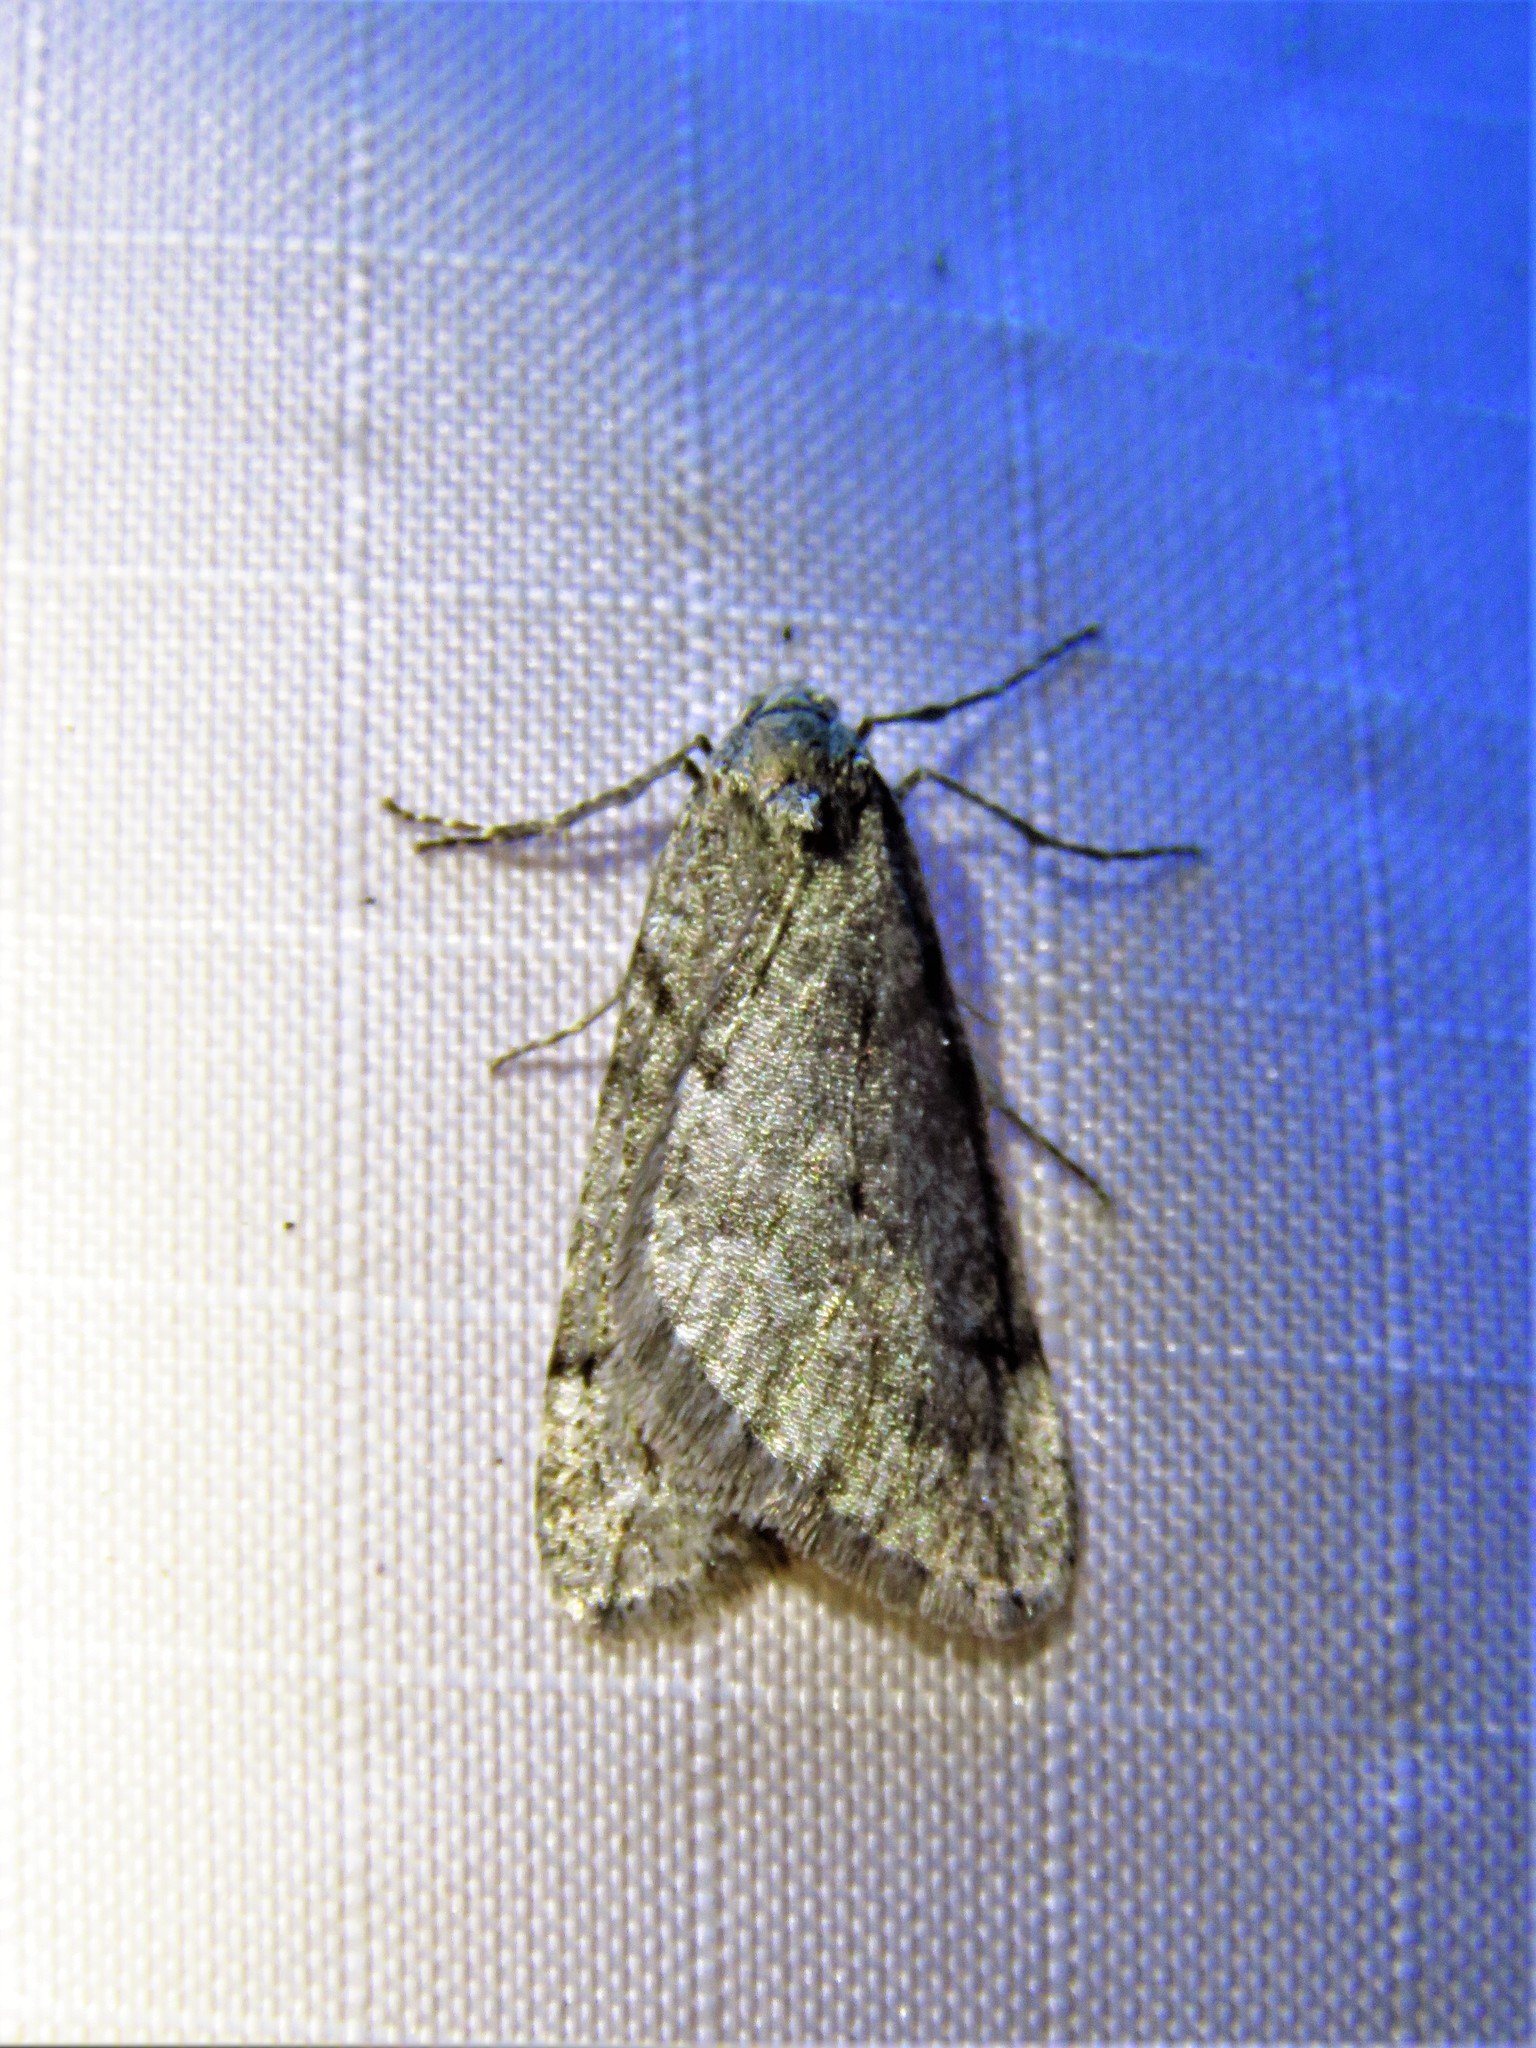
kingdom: Animalia
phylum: Arthropoda
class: Insecta
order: Lepidoptera
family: Geometridae
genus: Paleacrita
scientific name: Paleacrita vernata
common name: Spring cankerworm
